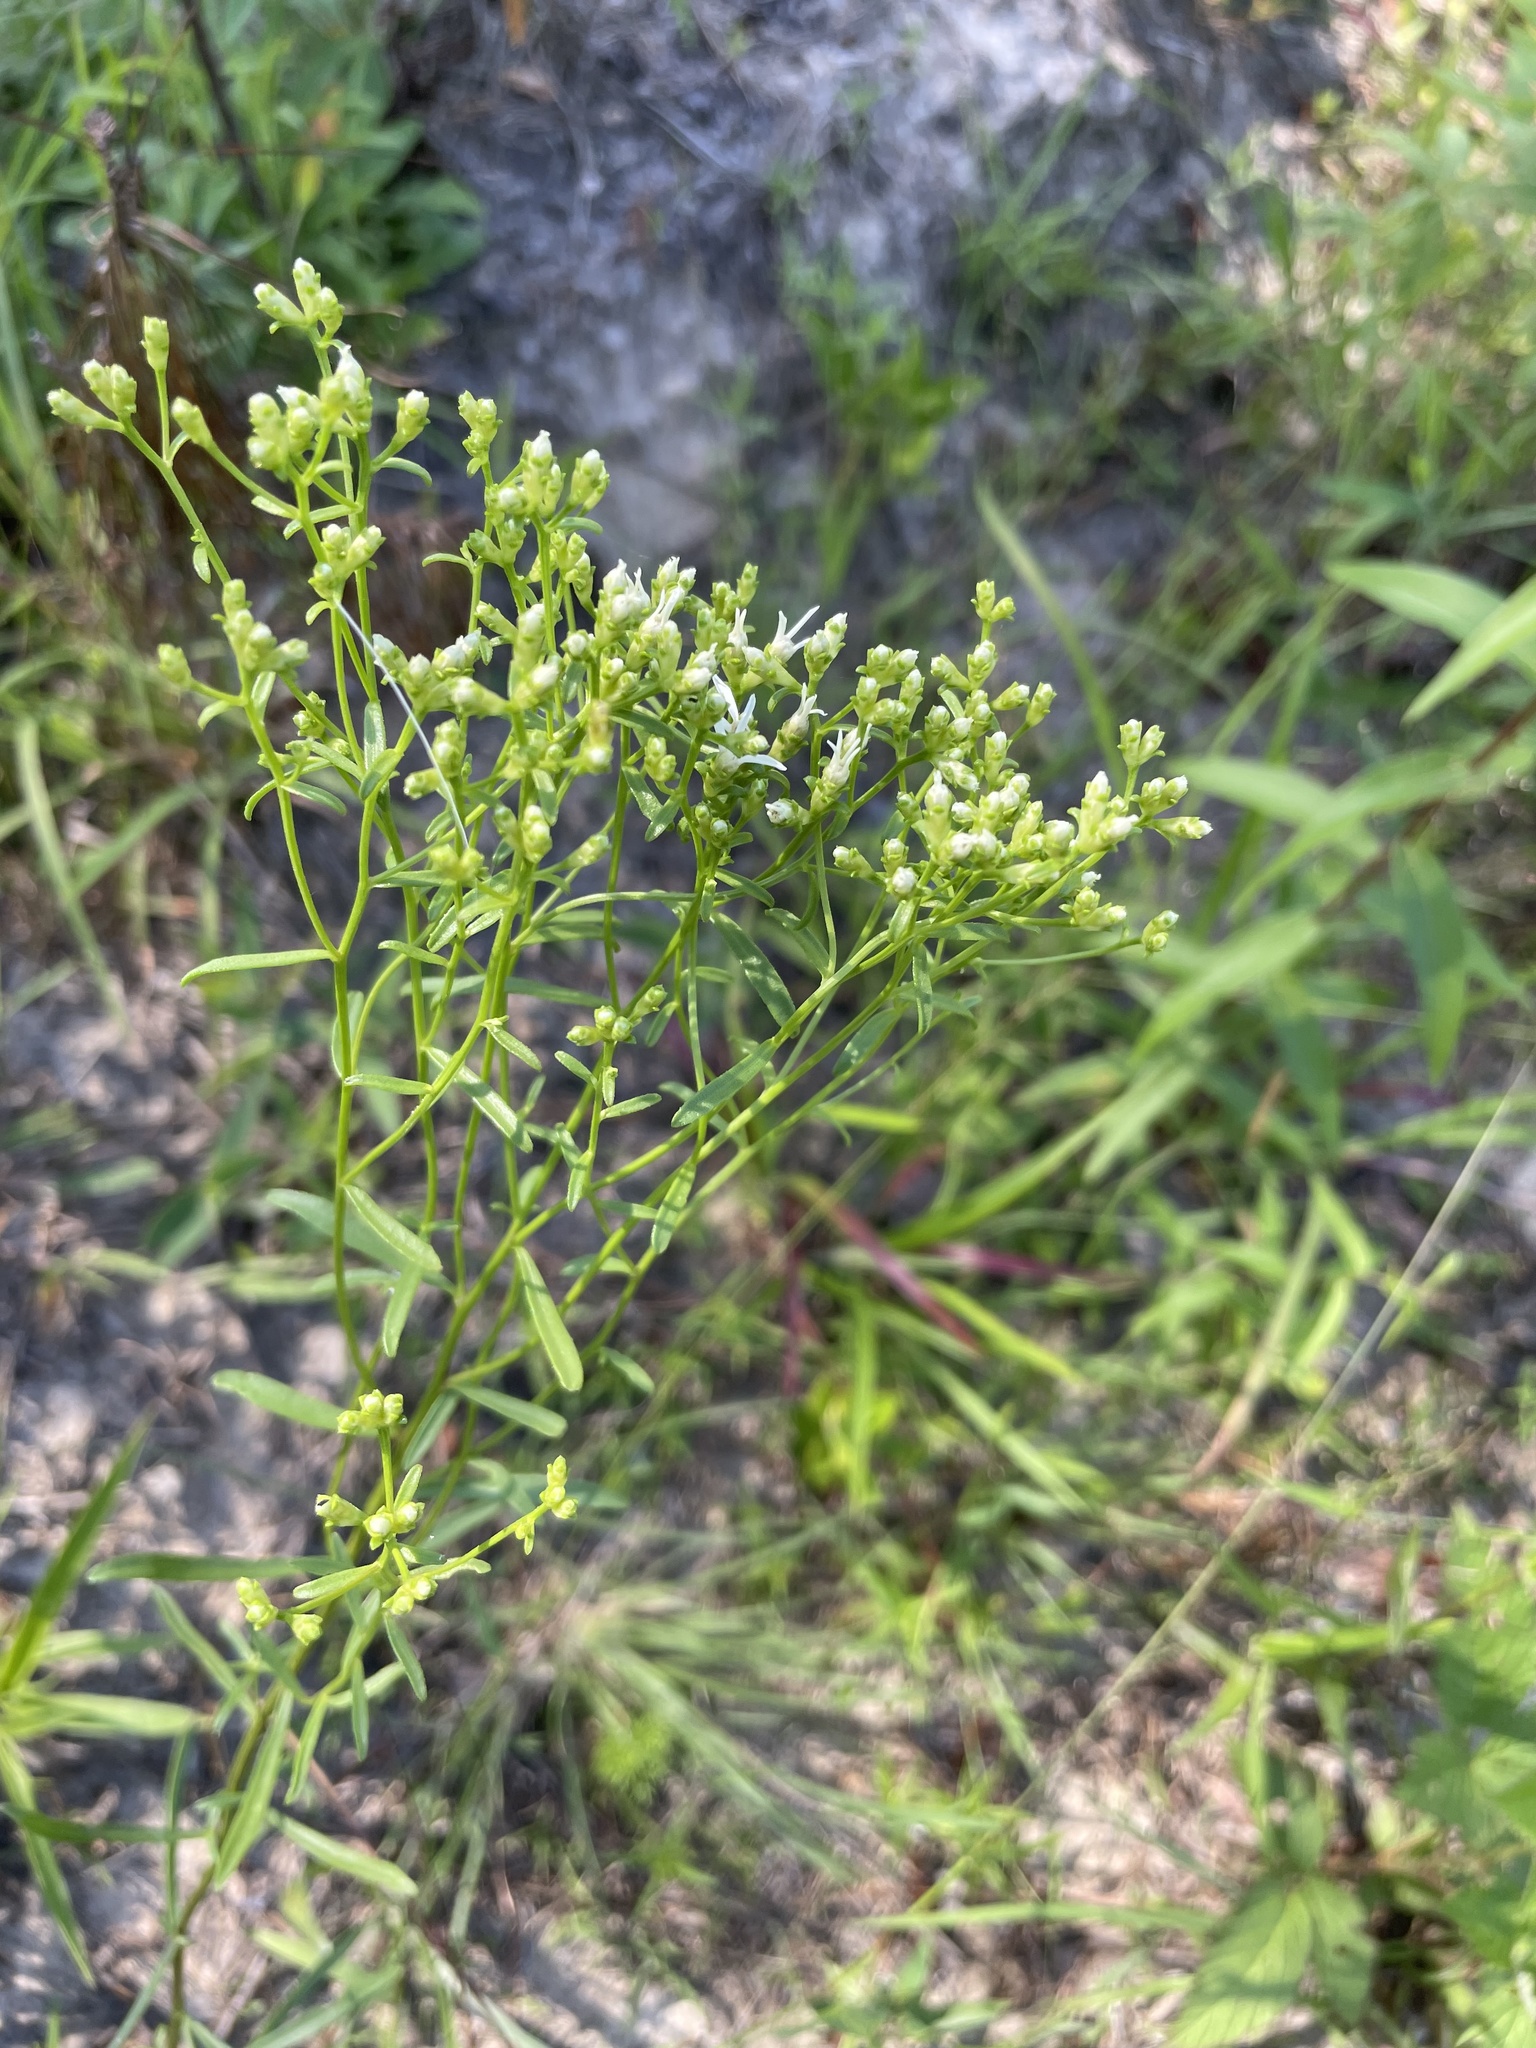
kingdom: Plantae
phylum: Tracheophyta
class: Magnoliopsida
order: Asterales
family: Asteraceae
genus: Sericocarpus
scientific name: Sericocarpus linifolius
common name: Narrow-leaf aster
